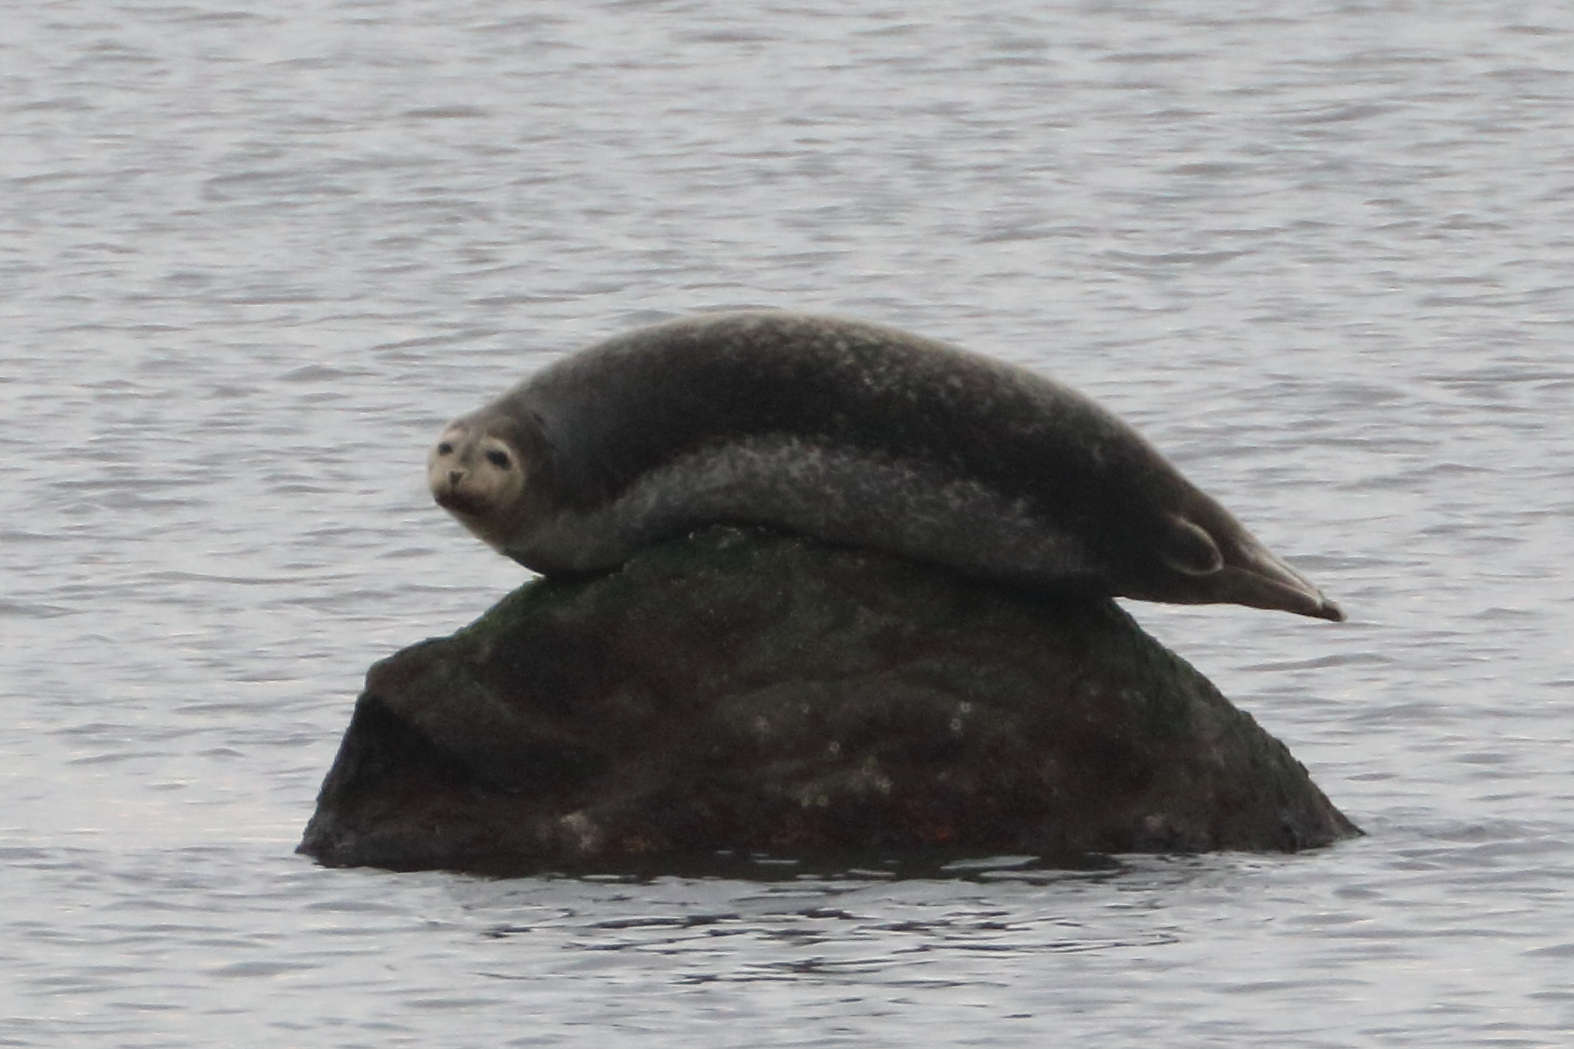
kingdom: Animalia
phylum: Chordata
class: Mammalia
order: Carnivora
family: Phocidae
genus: Phoca
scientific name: Phoca vitulina
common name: Harbor seal
